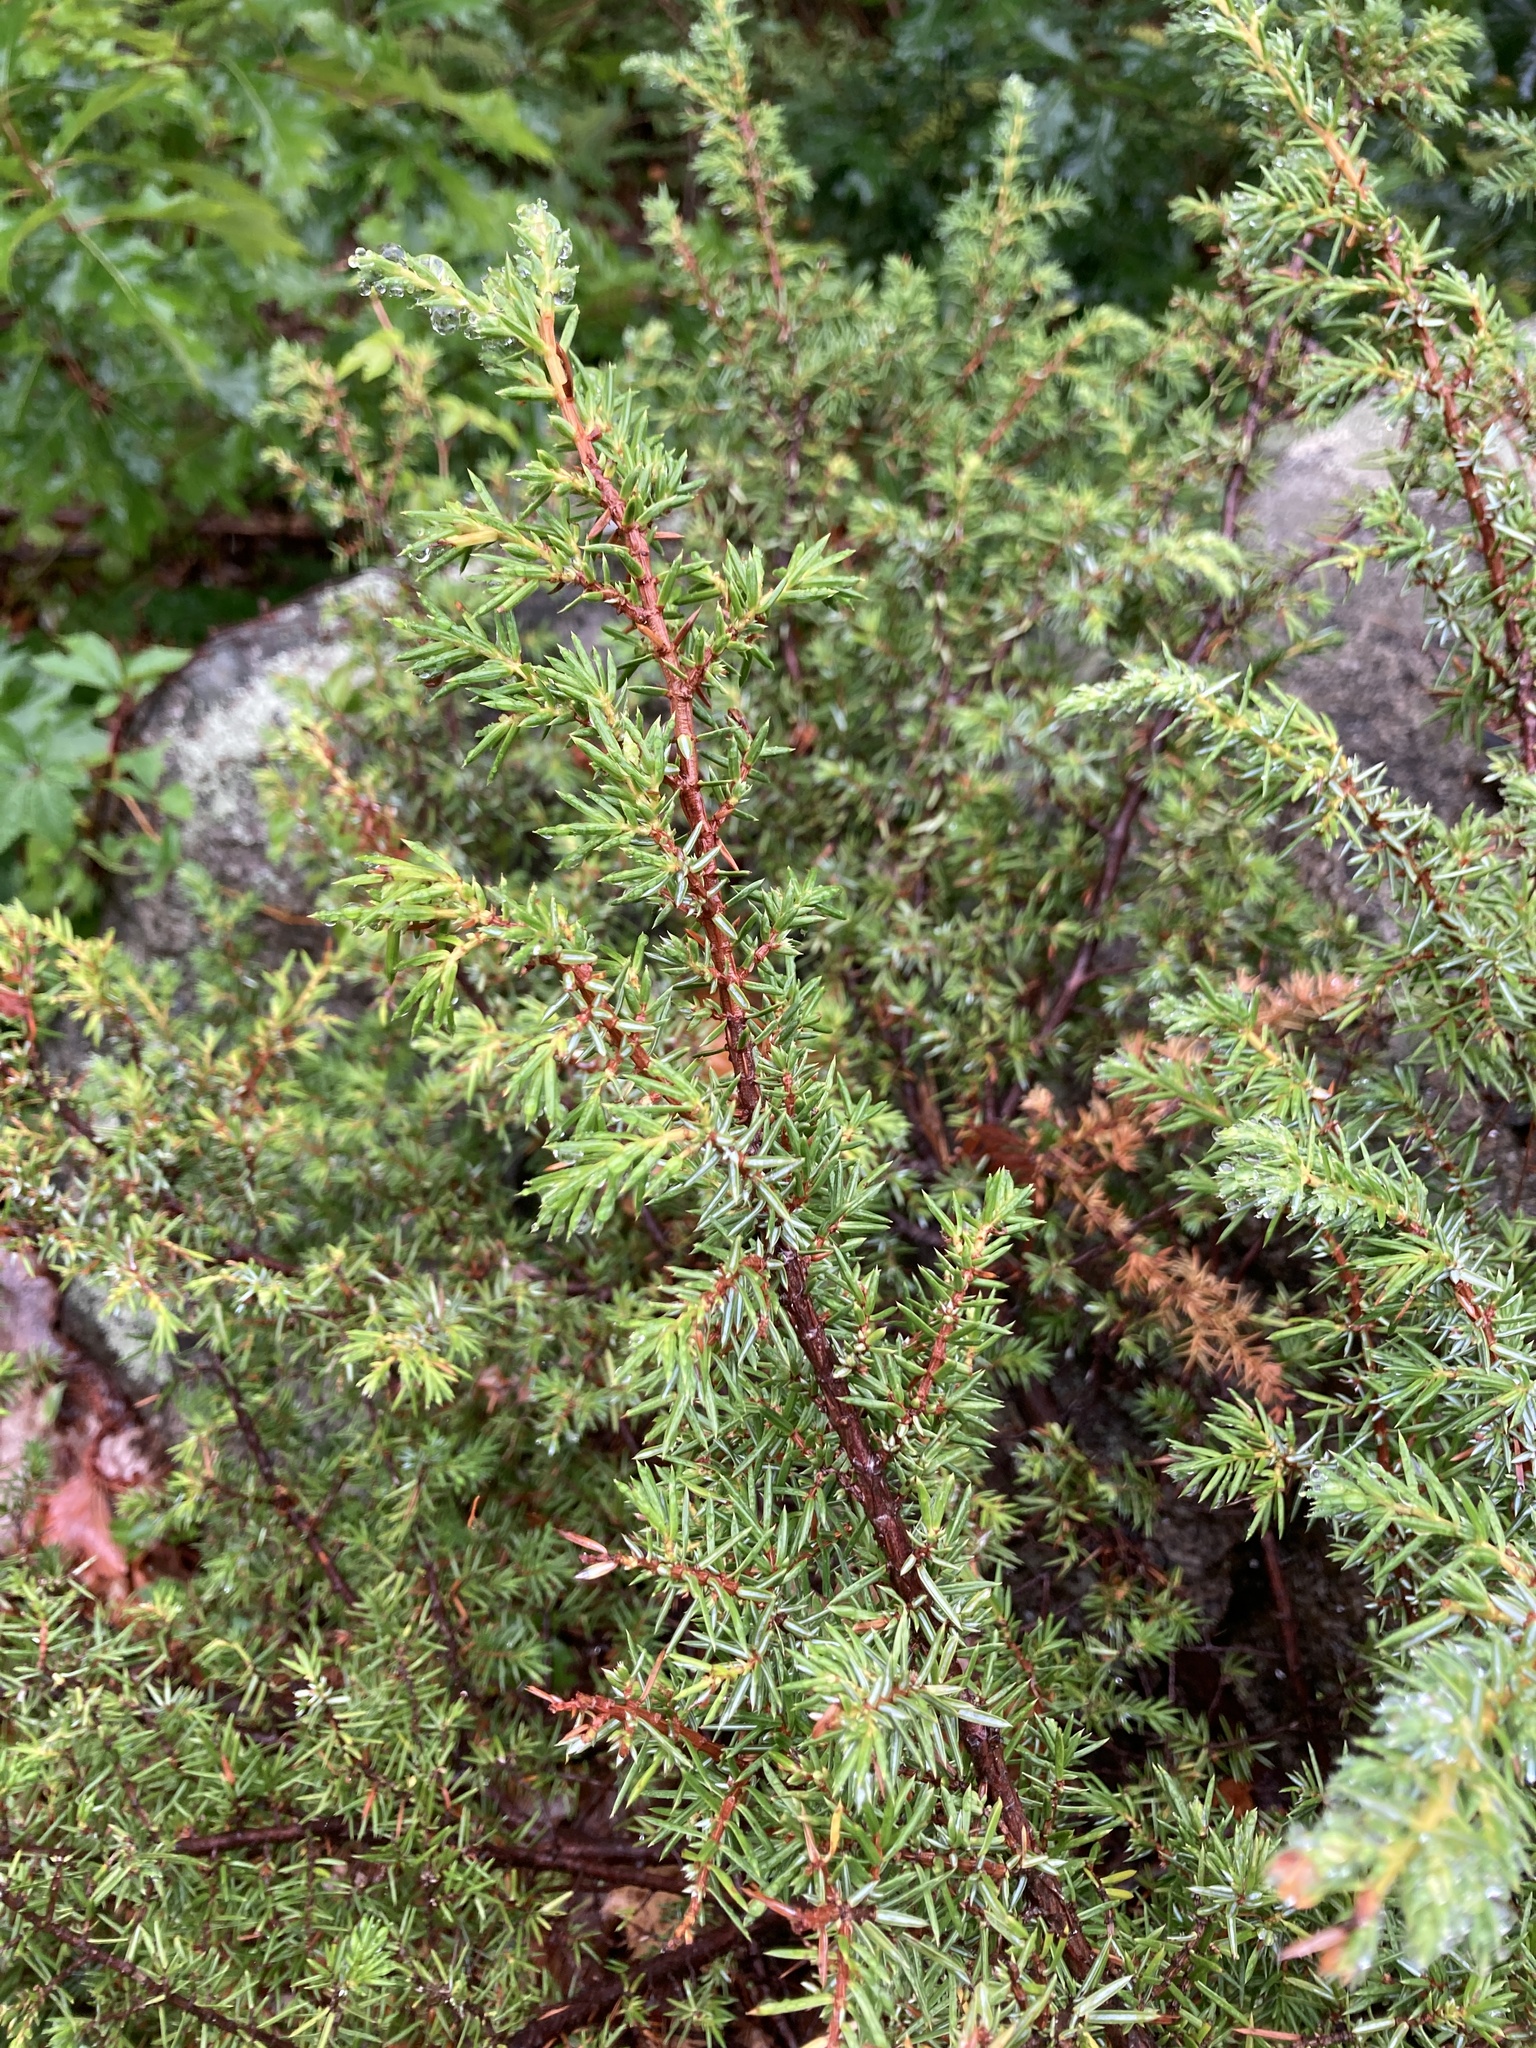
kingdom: Plantae
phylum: Tracheophyta
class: Pinopsida
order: Pinales
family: Cupressaceae
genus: Juniperus
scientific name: Juniperus communis
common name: Common juniper
